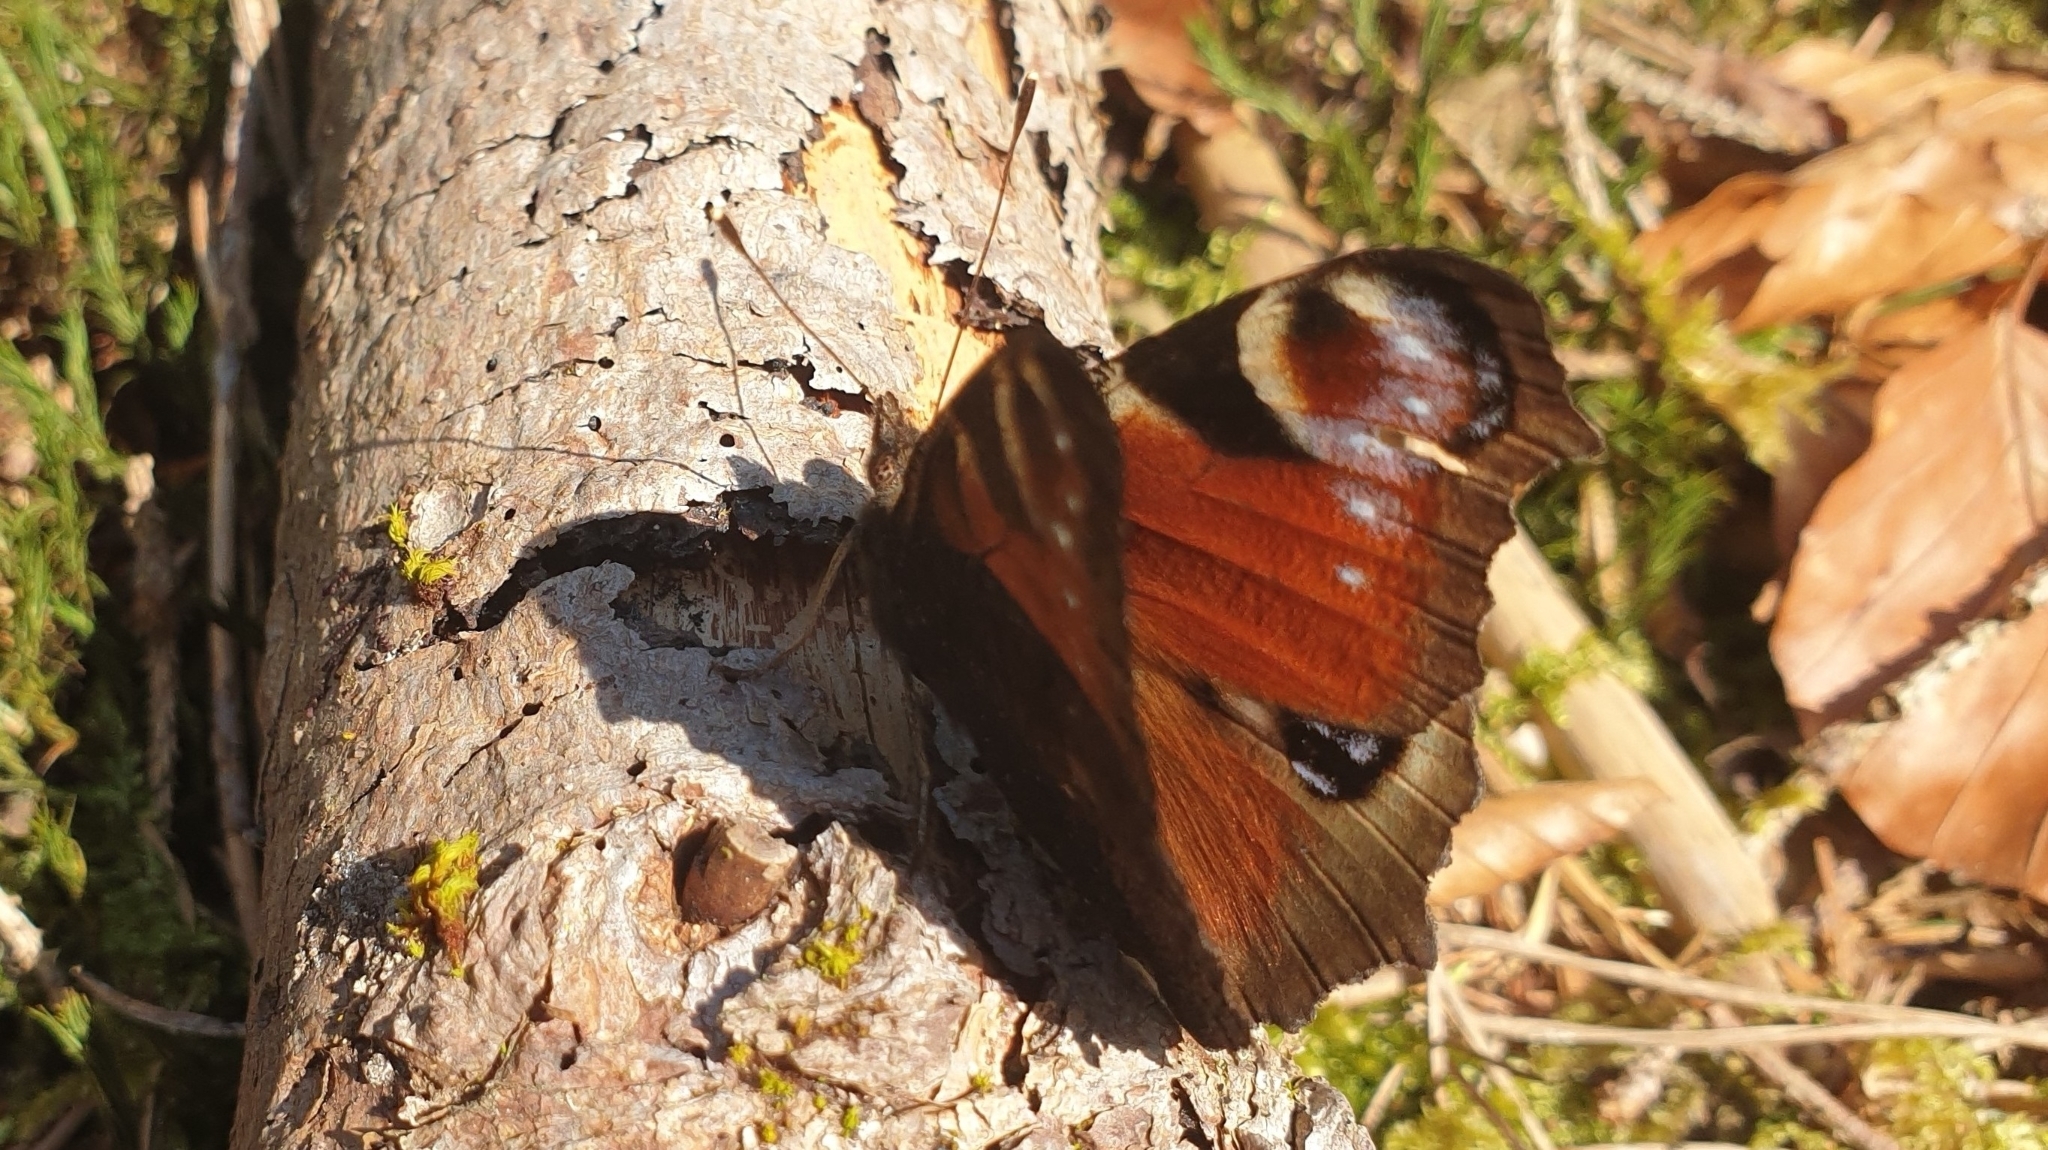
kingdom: Animalia
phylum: Arthropoda
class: Insecta
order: Lepidoptera
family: Nymphalidae
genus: Aglais
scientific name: Aglais io
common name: Peacock
